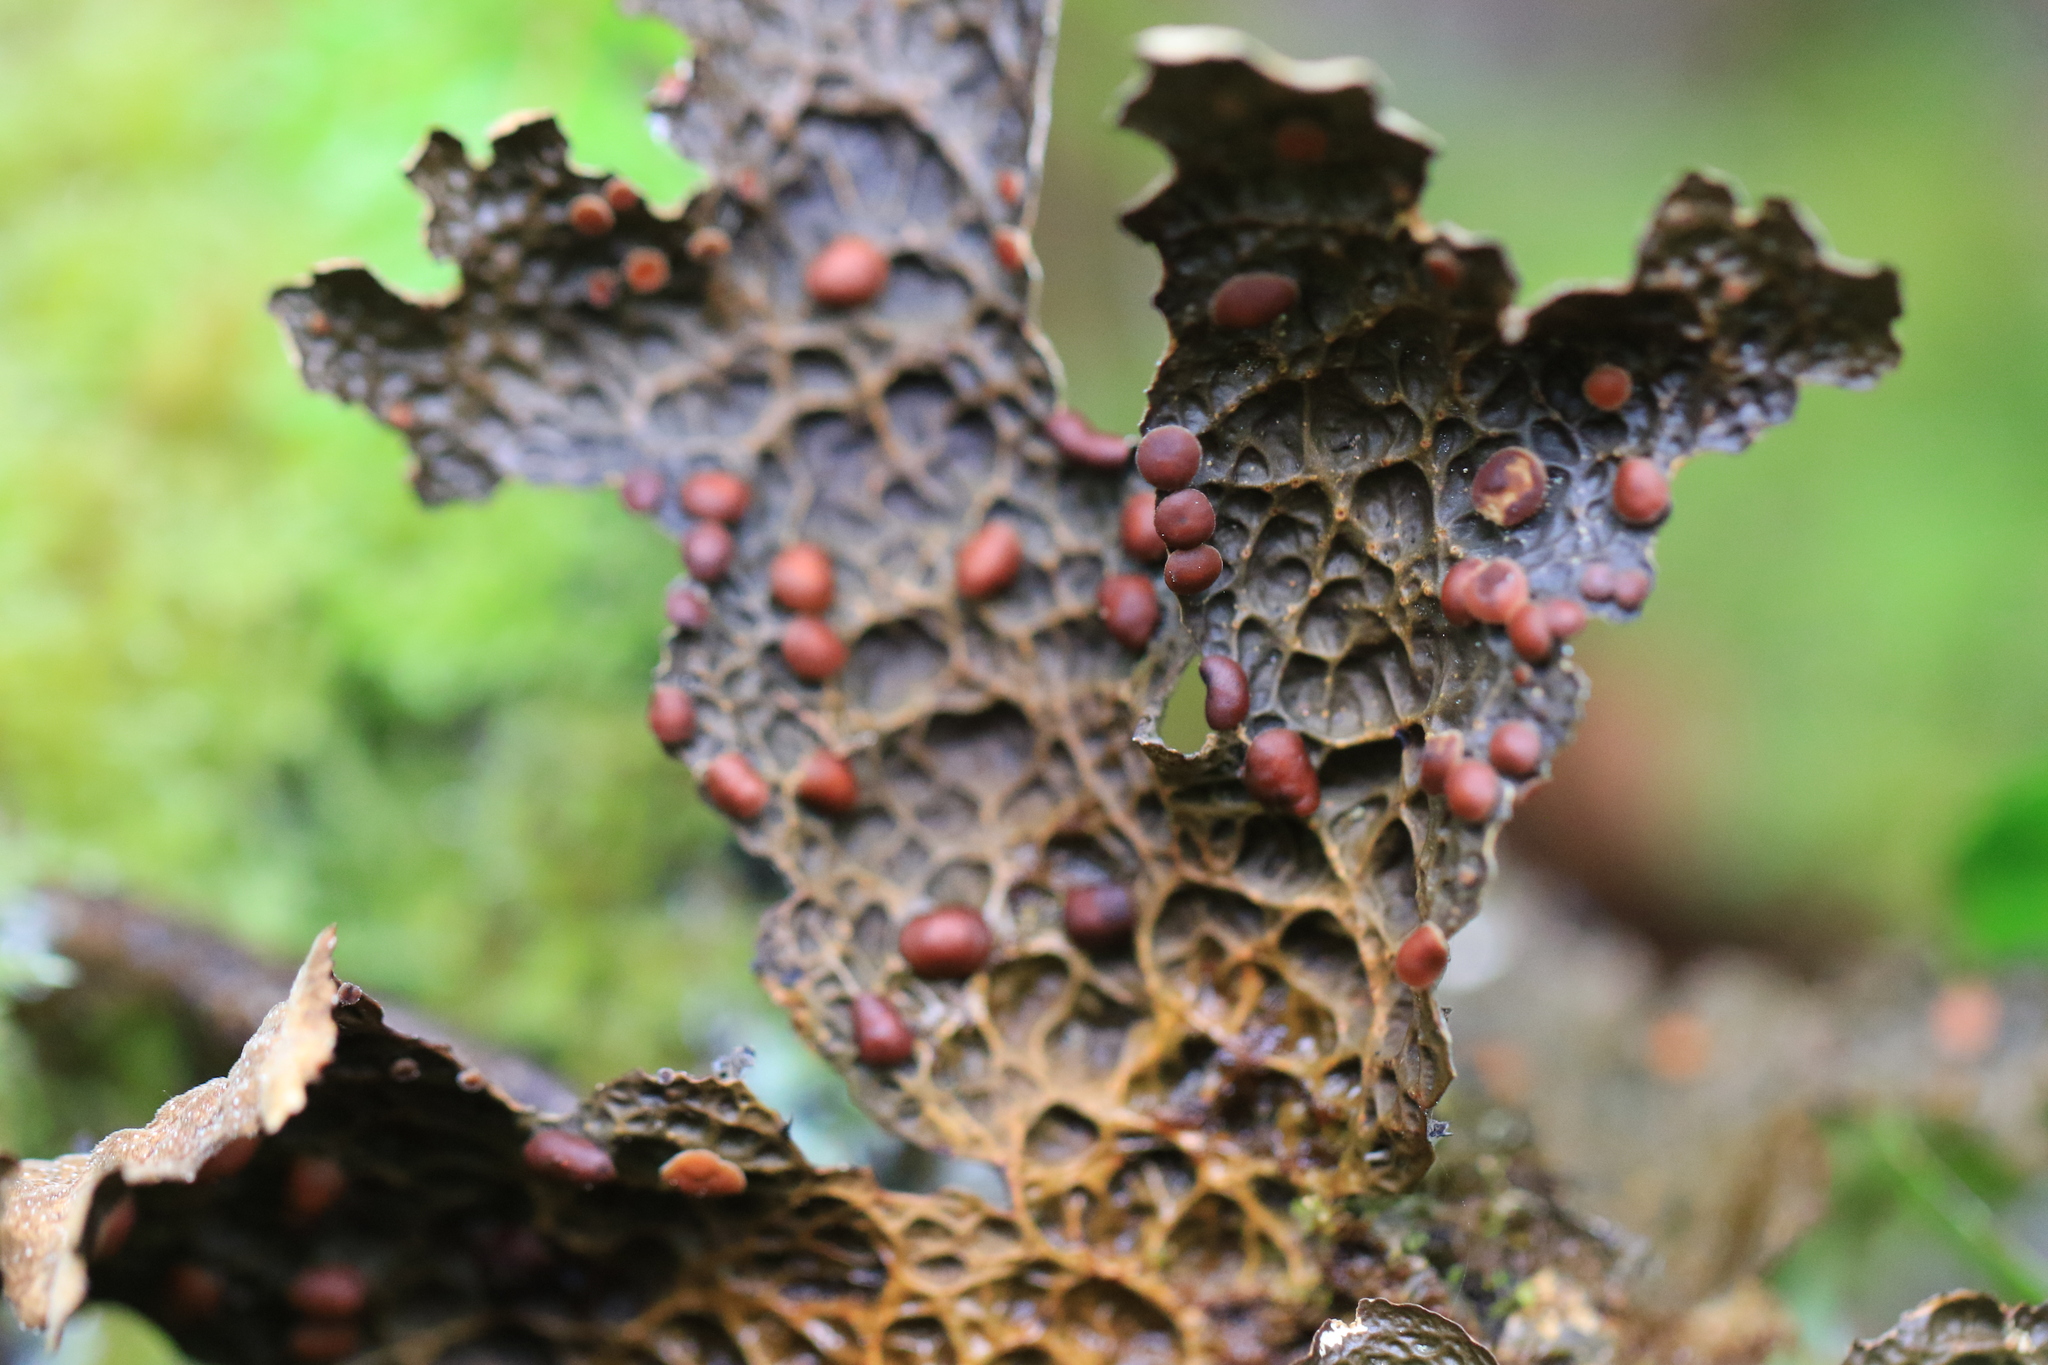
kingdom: Fungi
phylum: Ascomycota
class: Lecanoromycetes
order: Peltigerales
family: Lobariaceae
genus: Lobaria
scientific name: Lobaria anthraspis
